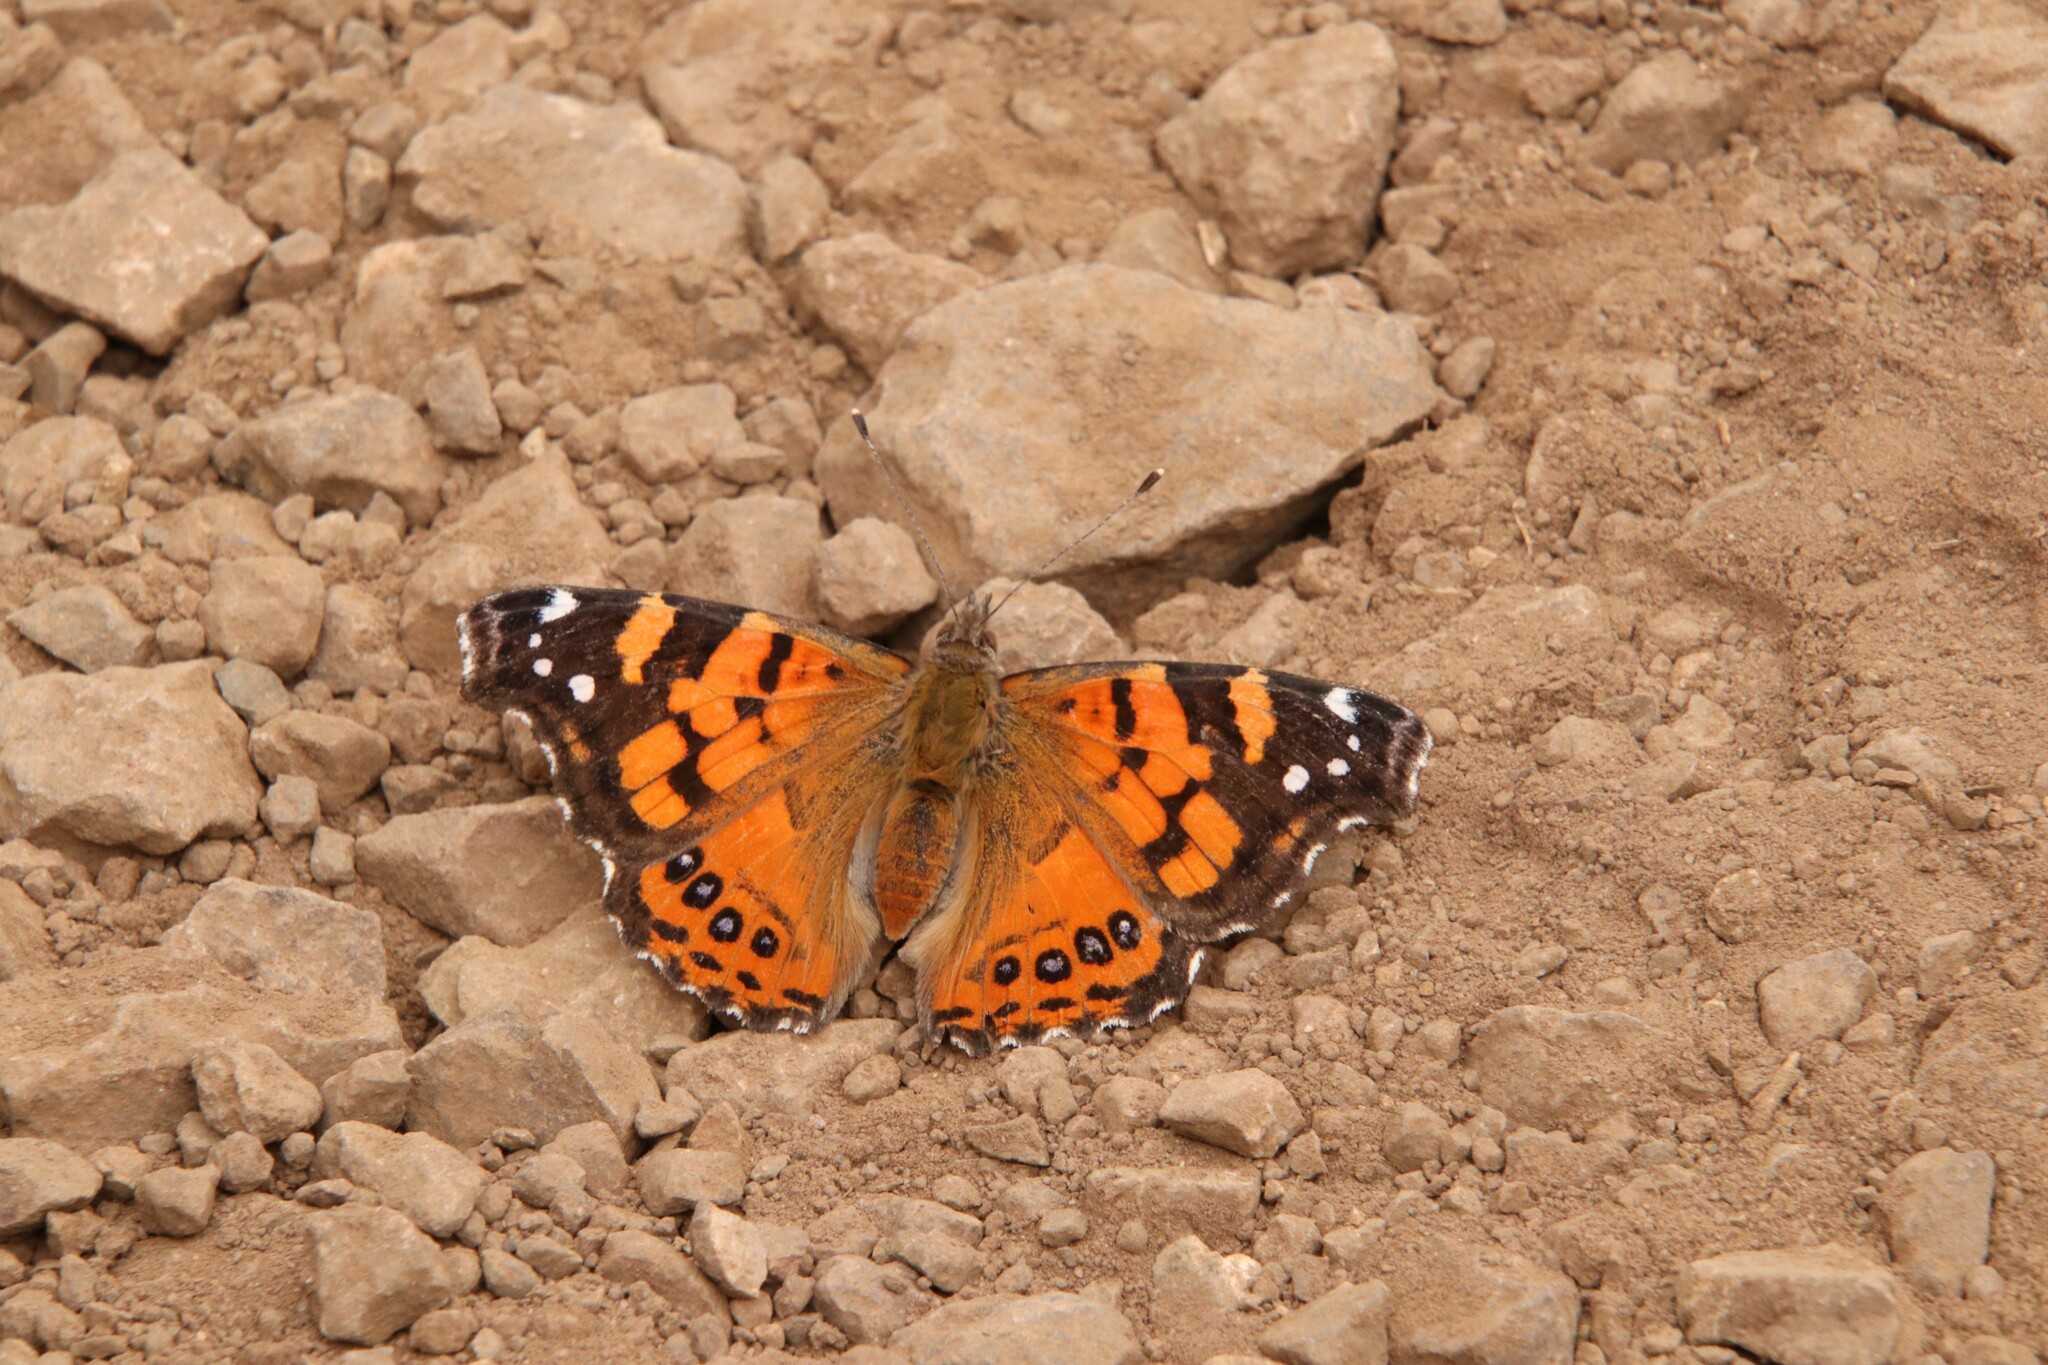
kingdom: Animalia
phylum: Arthropoda
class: Insecta
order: Lepidoptera
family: Nymphalidae
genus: Vanessa
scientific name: Vanessa carye
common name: Subtropical lady
